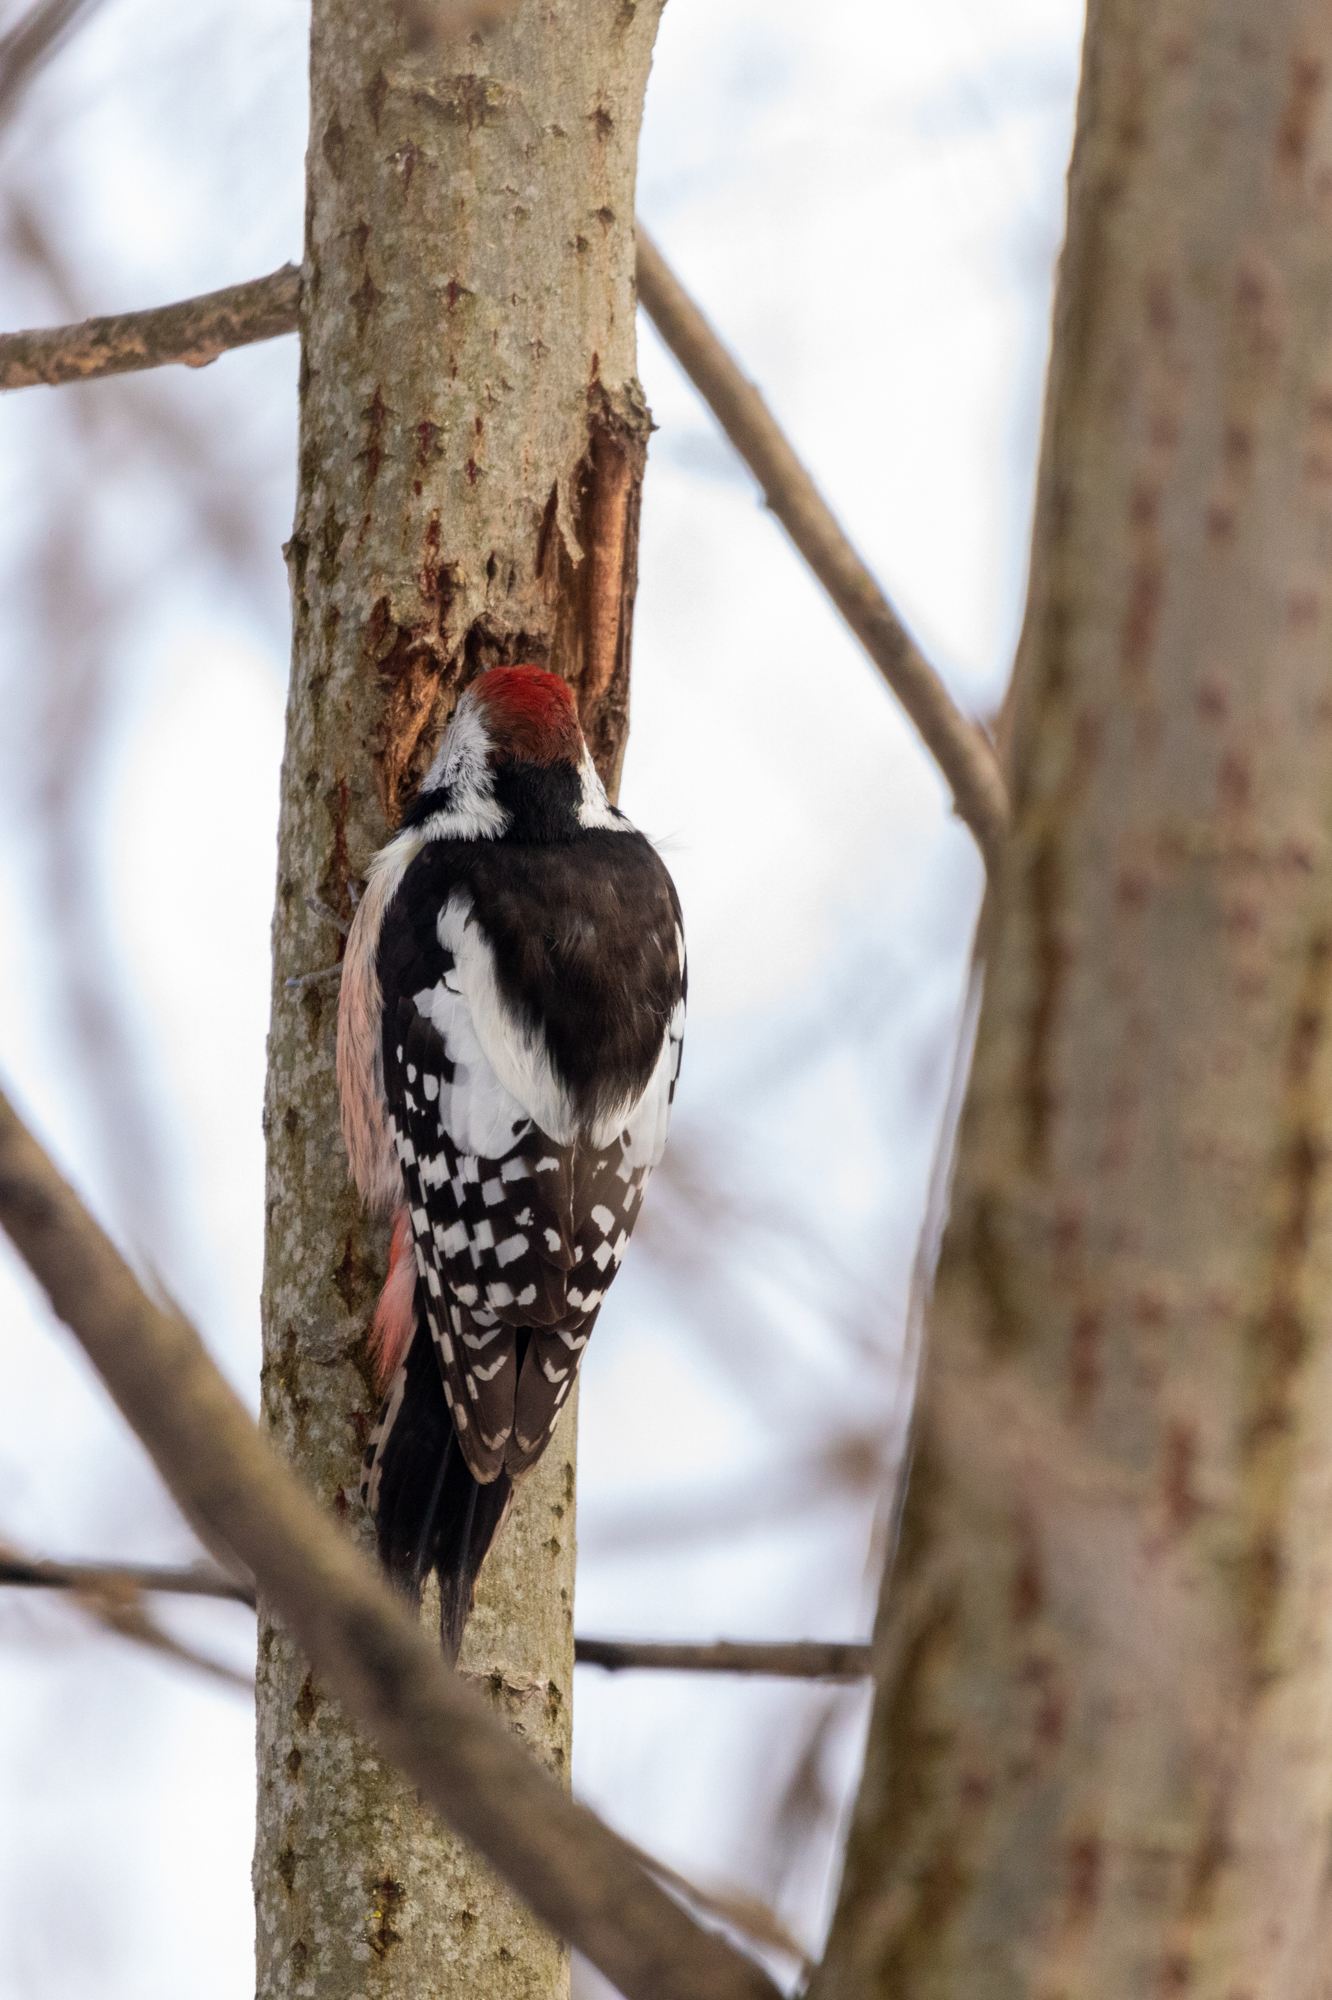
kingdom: Animalia
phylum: Chordata
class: Aves
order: Piciformes
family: Picidae
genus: Dendrocoptes
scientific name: Dendrocoptes medius
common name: Middle spotted woodpecker
